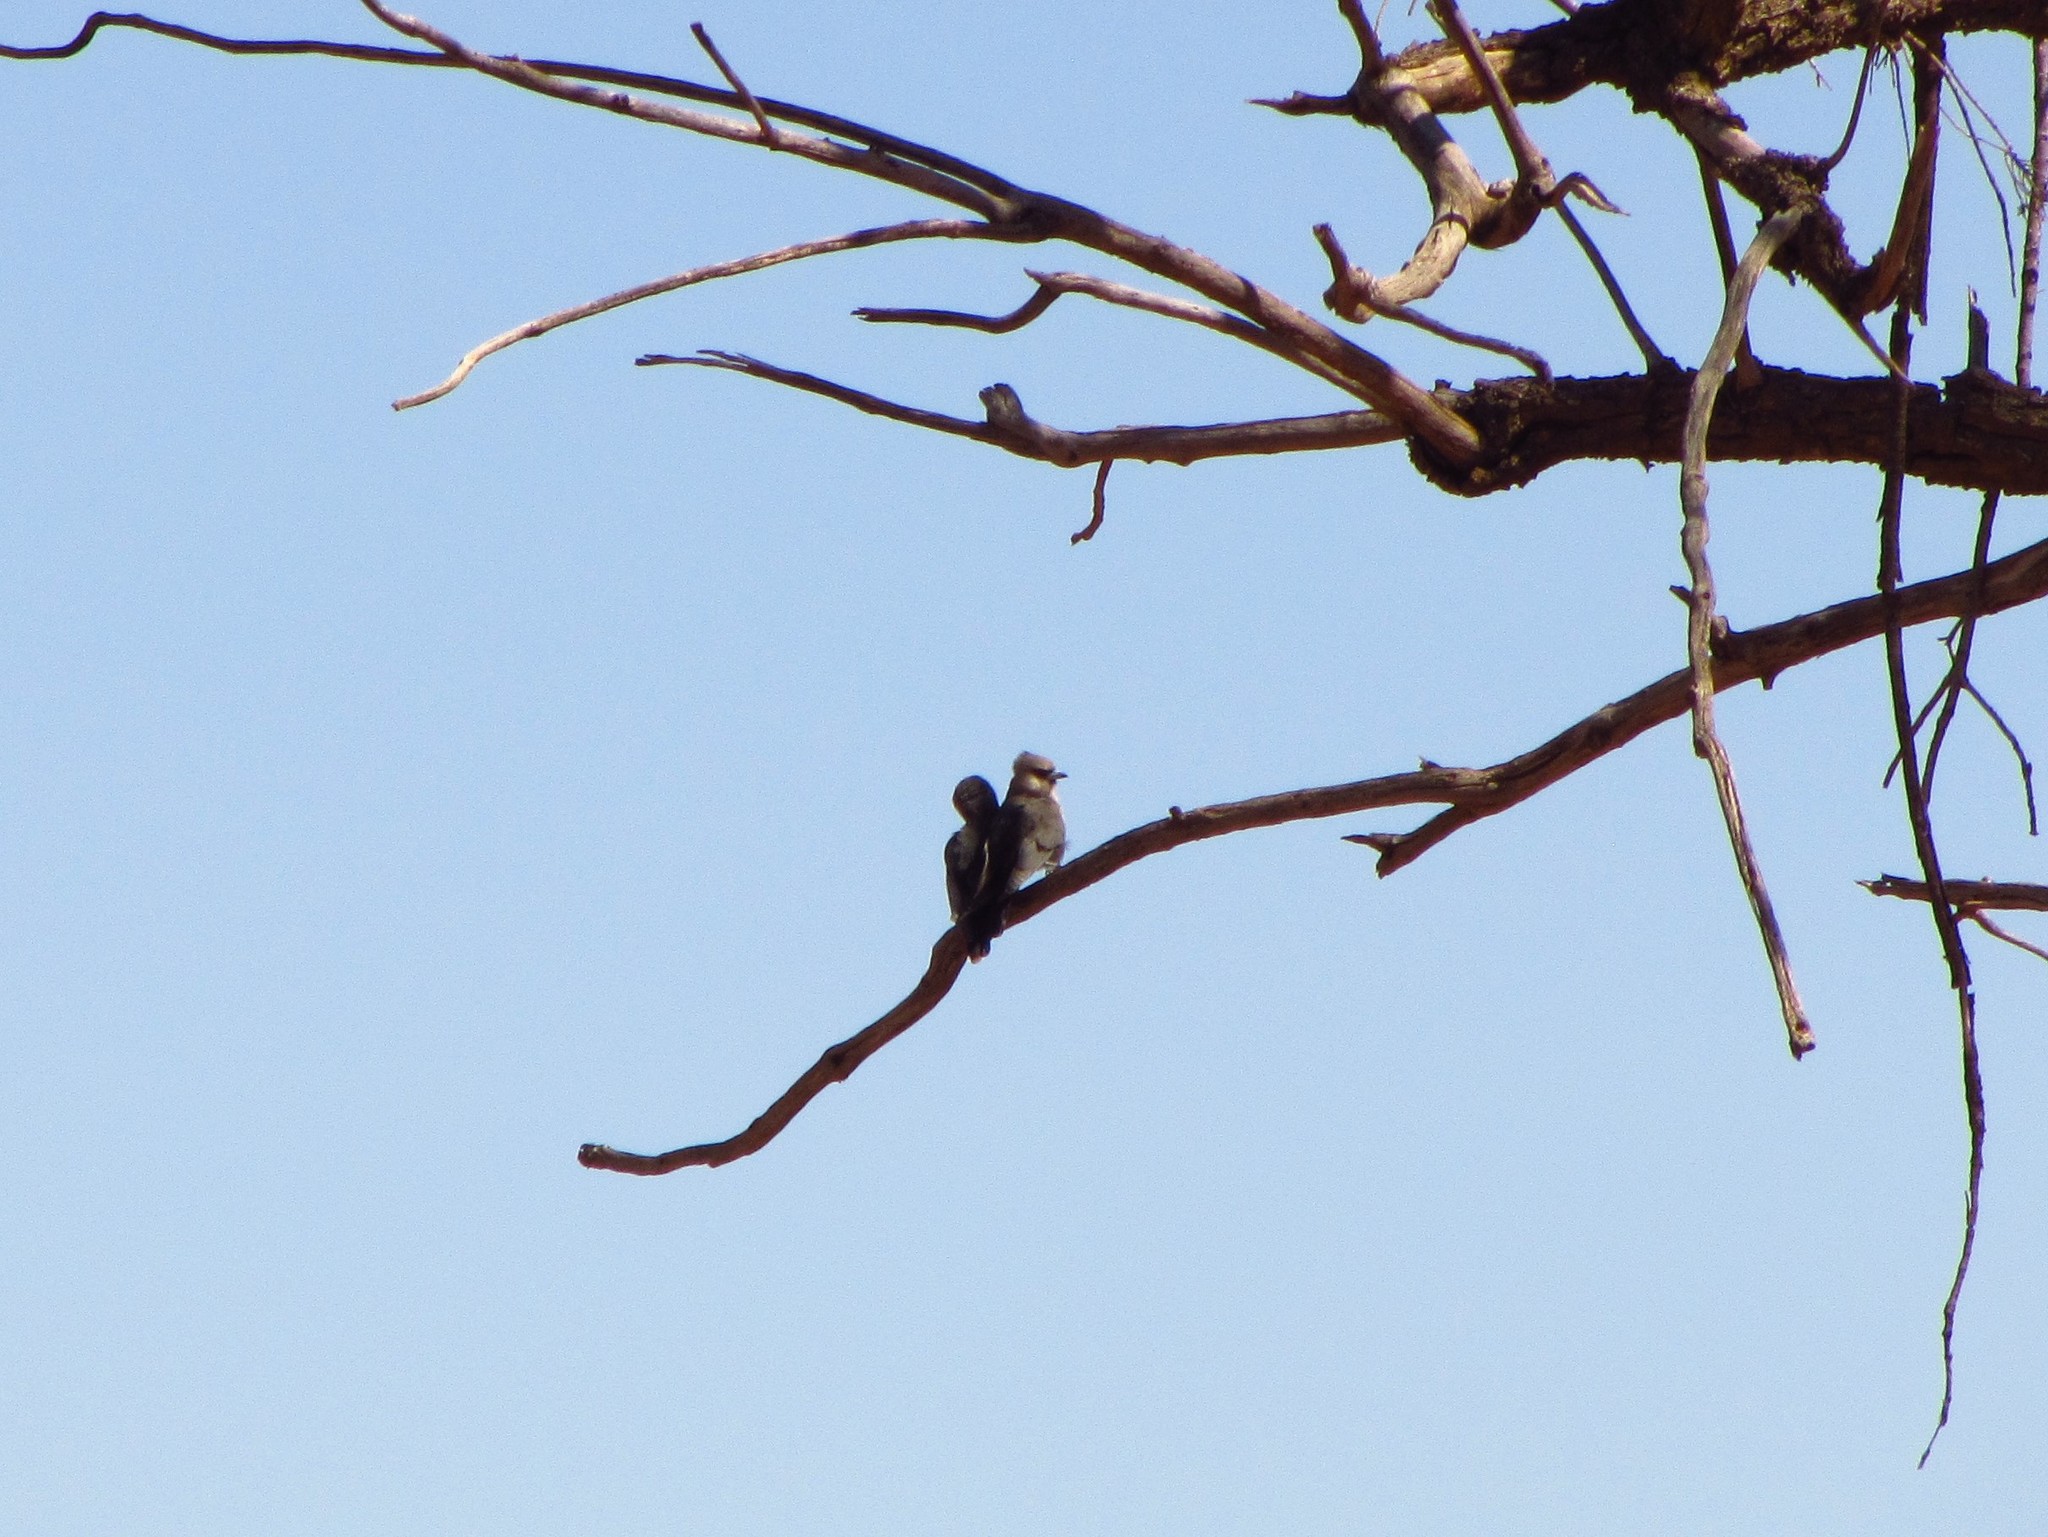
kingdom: Animalia
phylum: Chordata
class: Aves
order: Passeriformes
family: Artamidae
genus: Artamus
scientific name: Artamus cinereus
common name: Black-faced woodswallow
